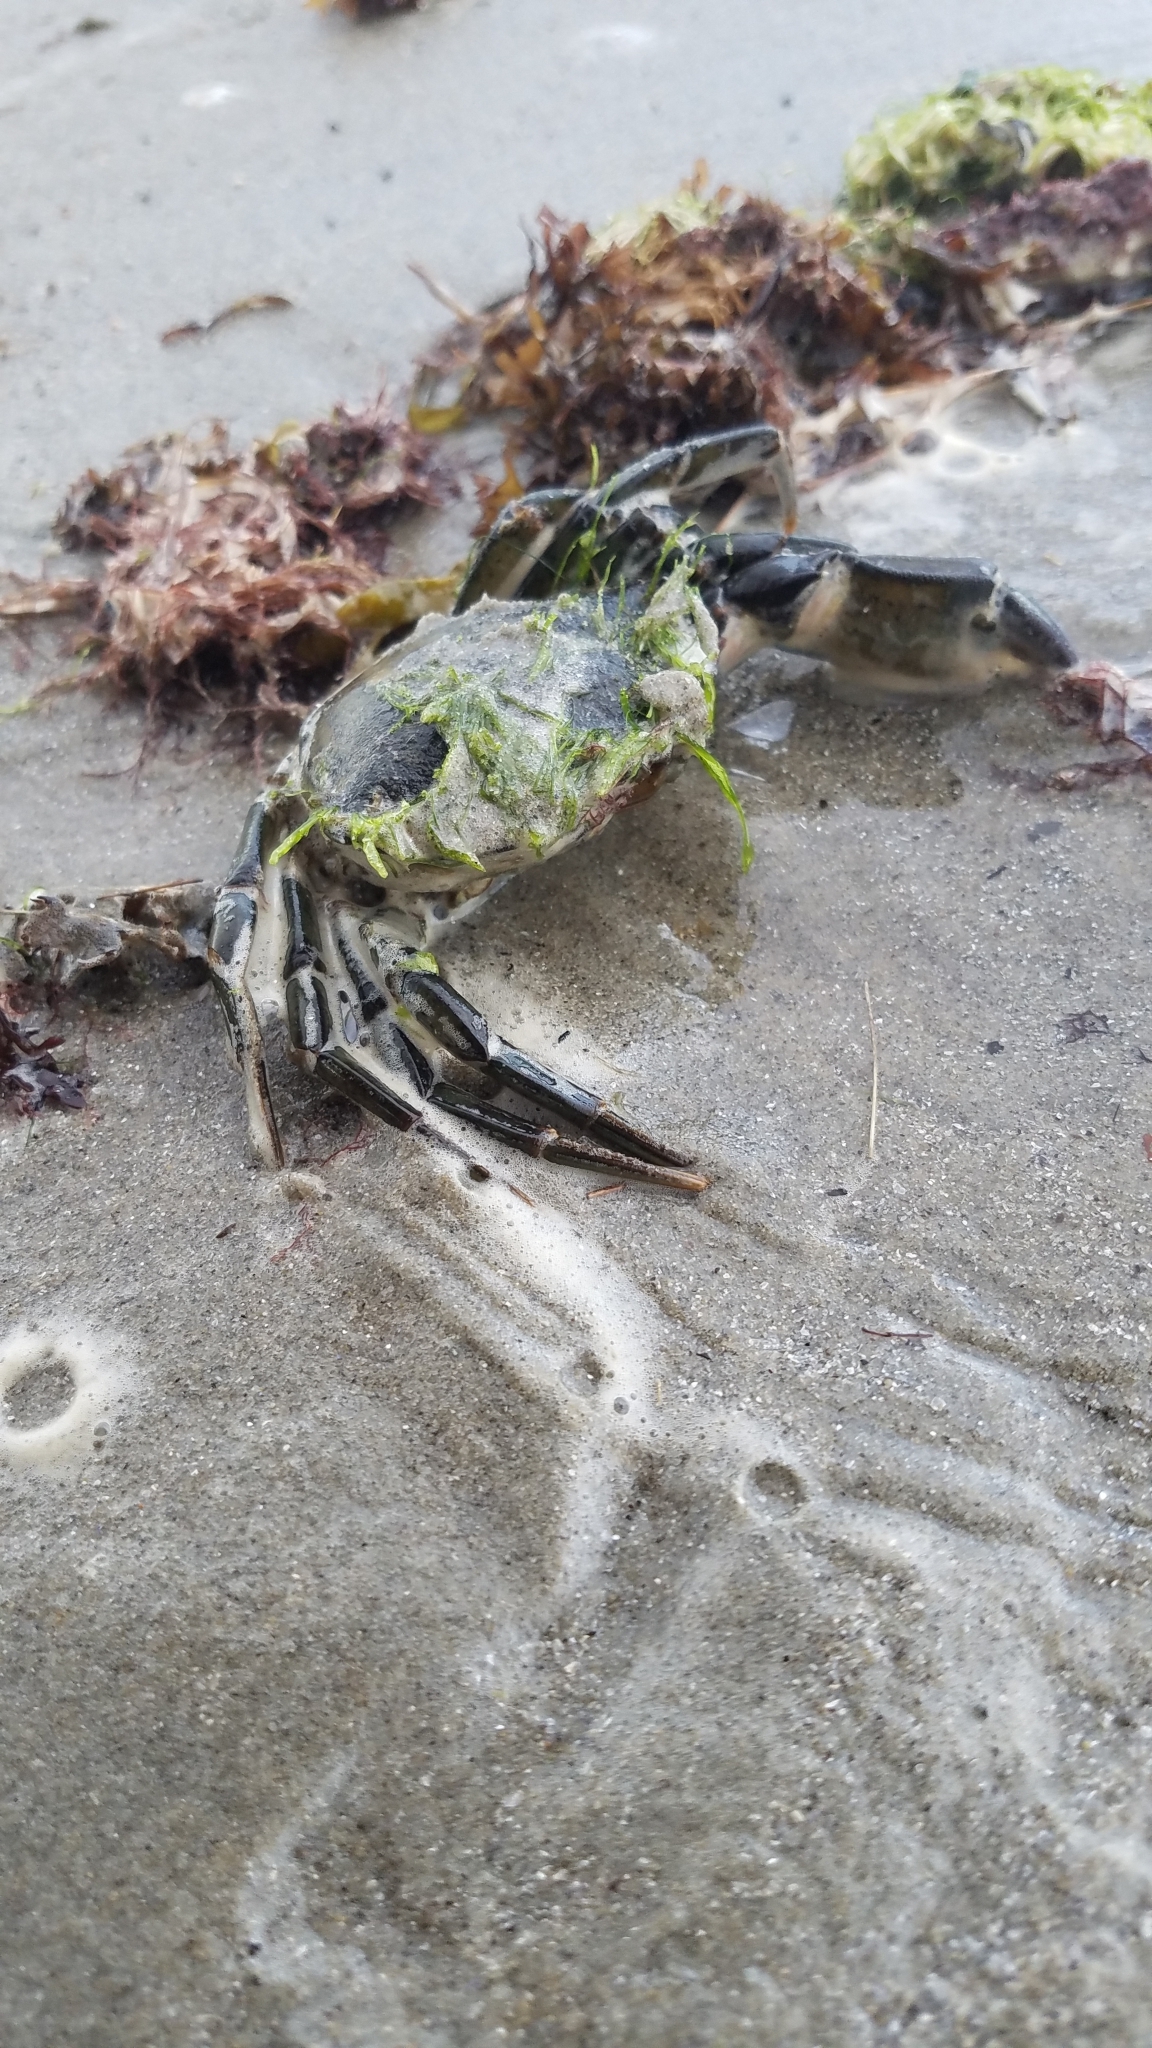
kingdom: Animalia
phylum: Arthropoda
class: Malacostraca
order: Decapoda
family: Carcinidae
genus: Carcinus
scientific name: Carcinus maenas
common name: European green crab
